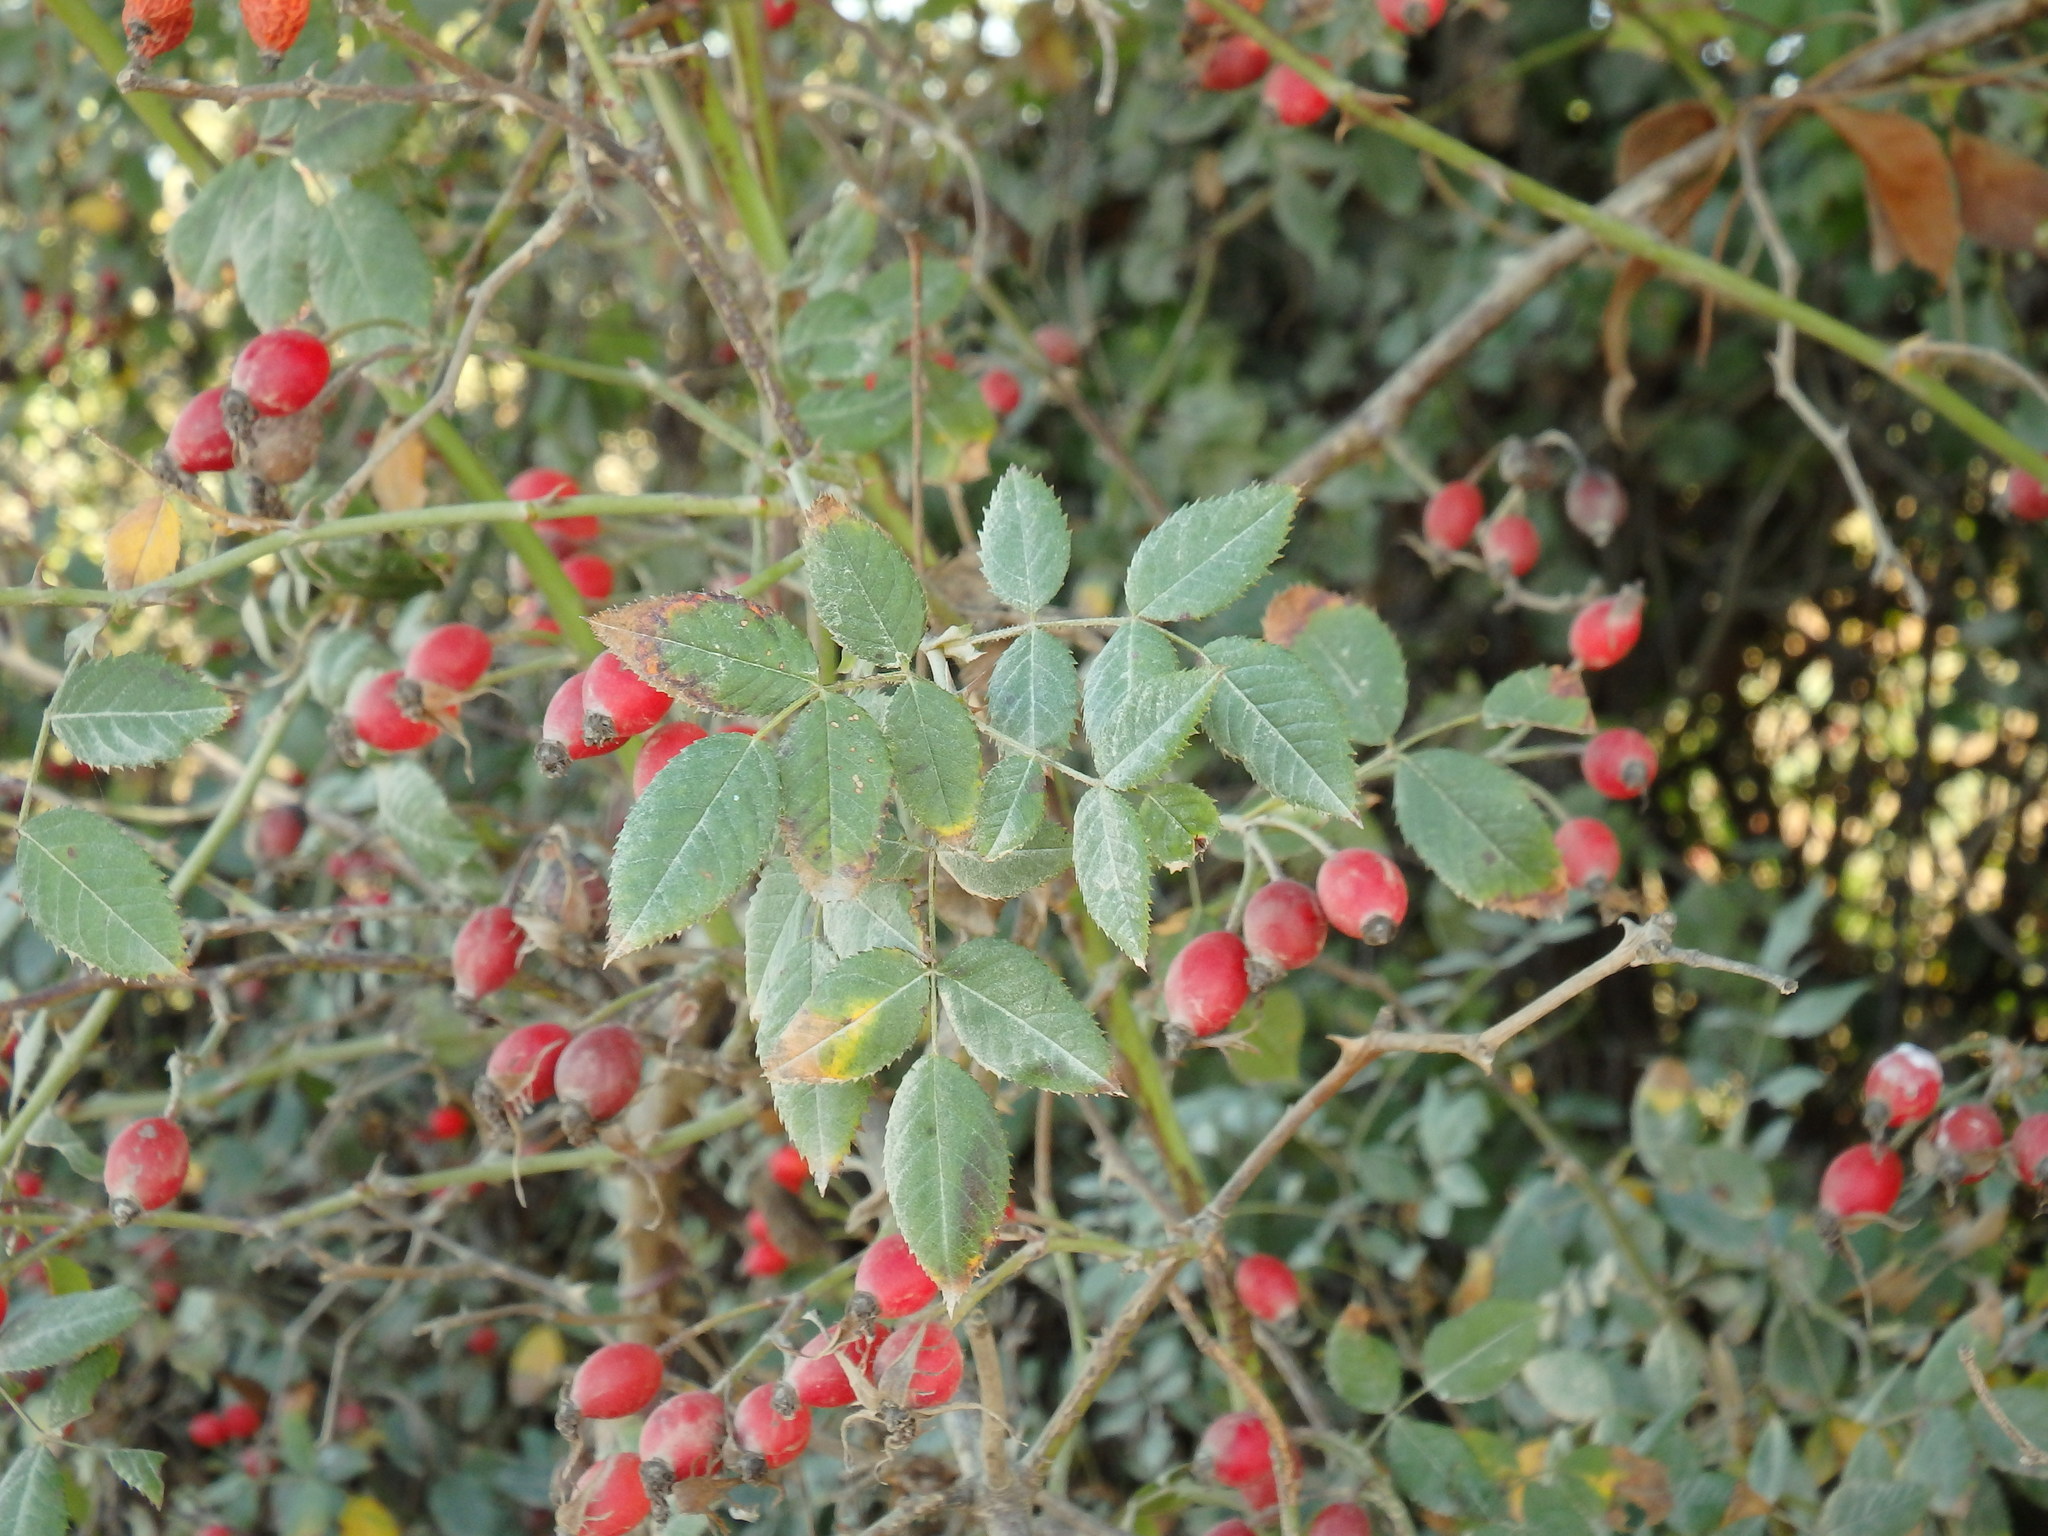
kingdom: Plantae
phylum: Tracheophyta
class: Magnoliopsida
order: Rosales
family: Rosaceae
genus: Rosa
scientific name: Rosa
